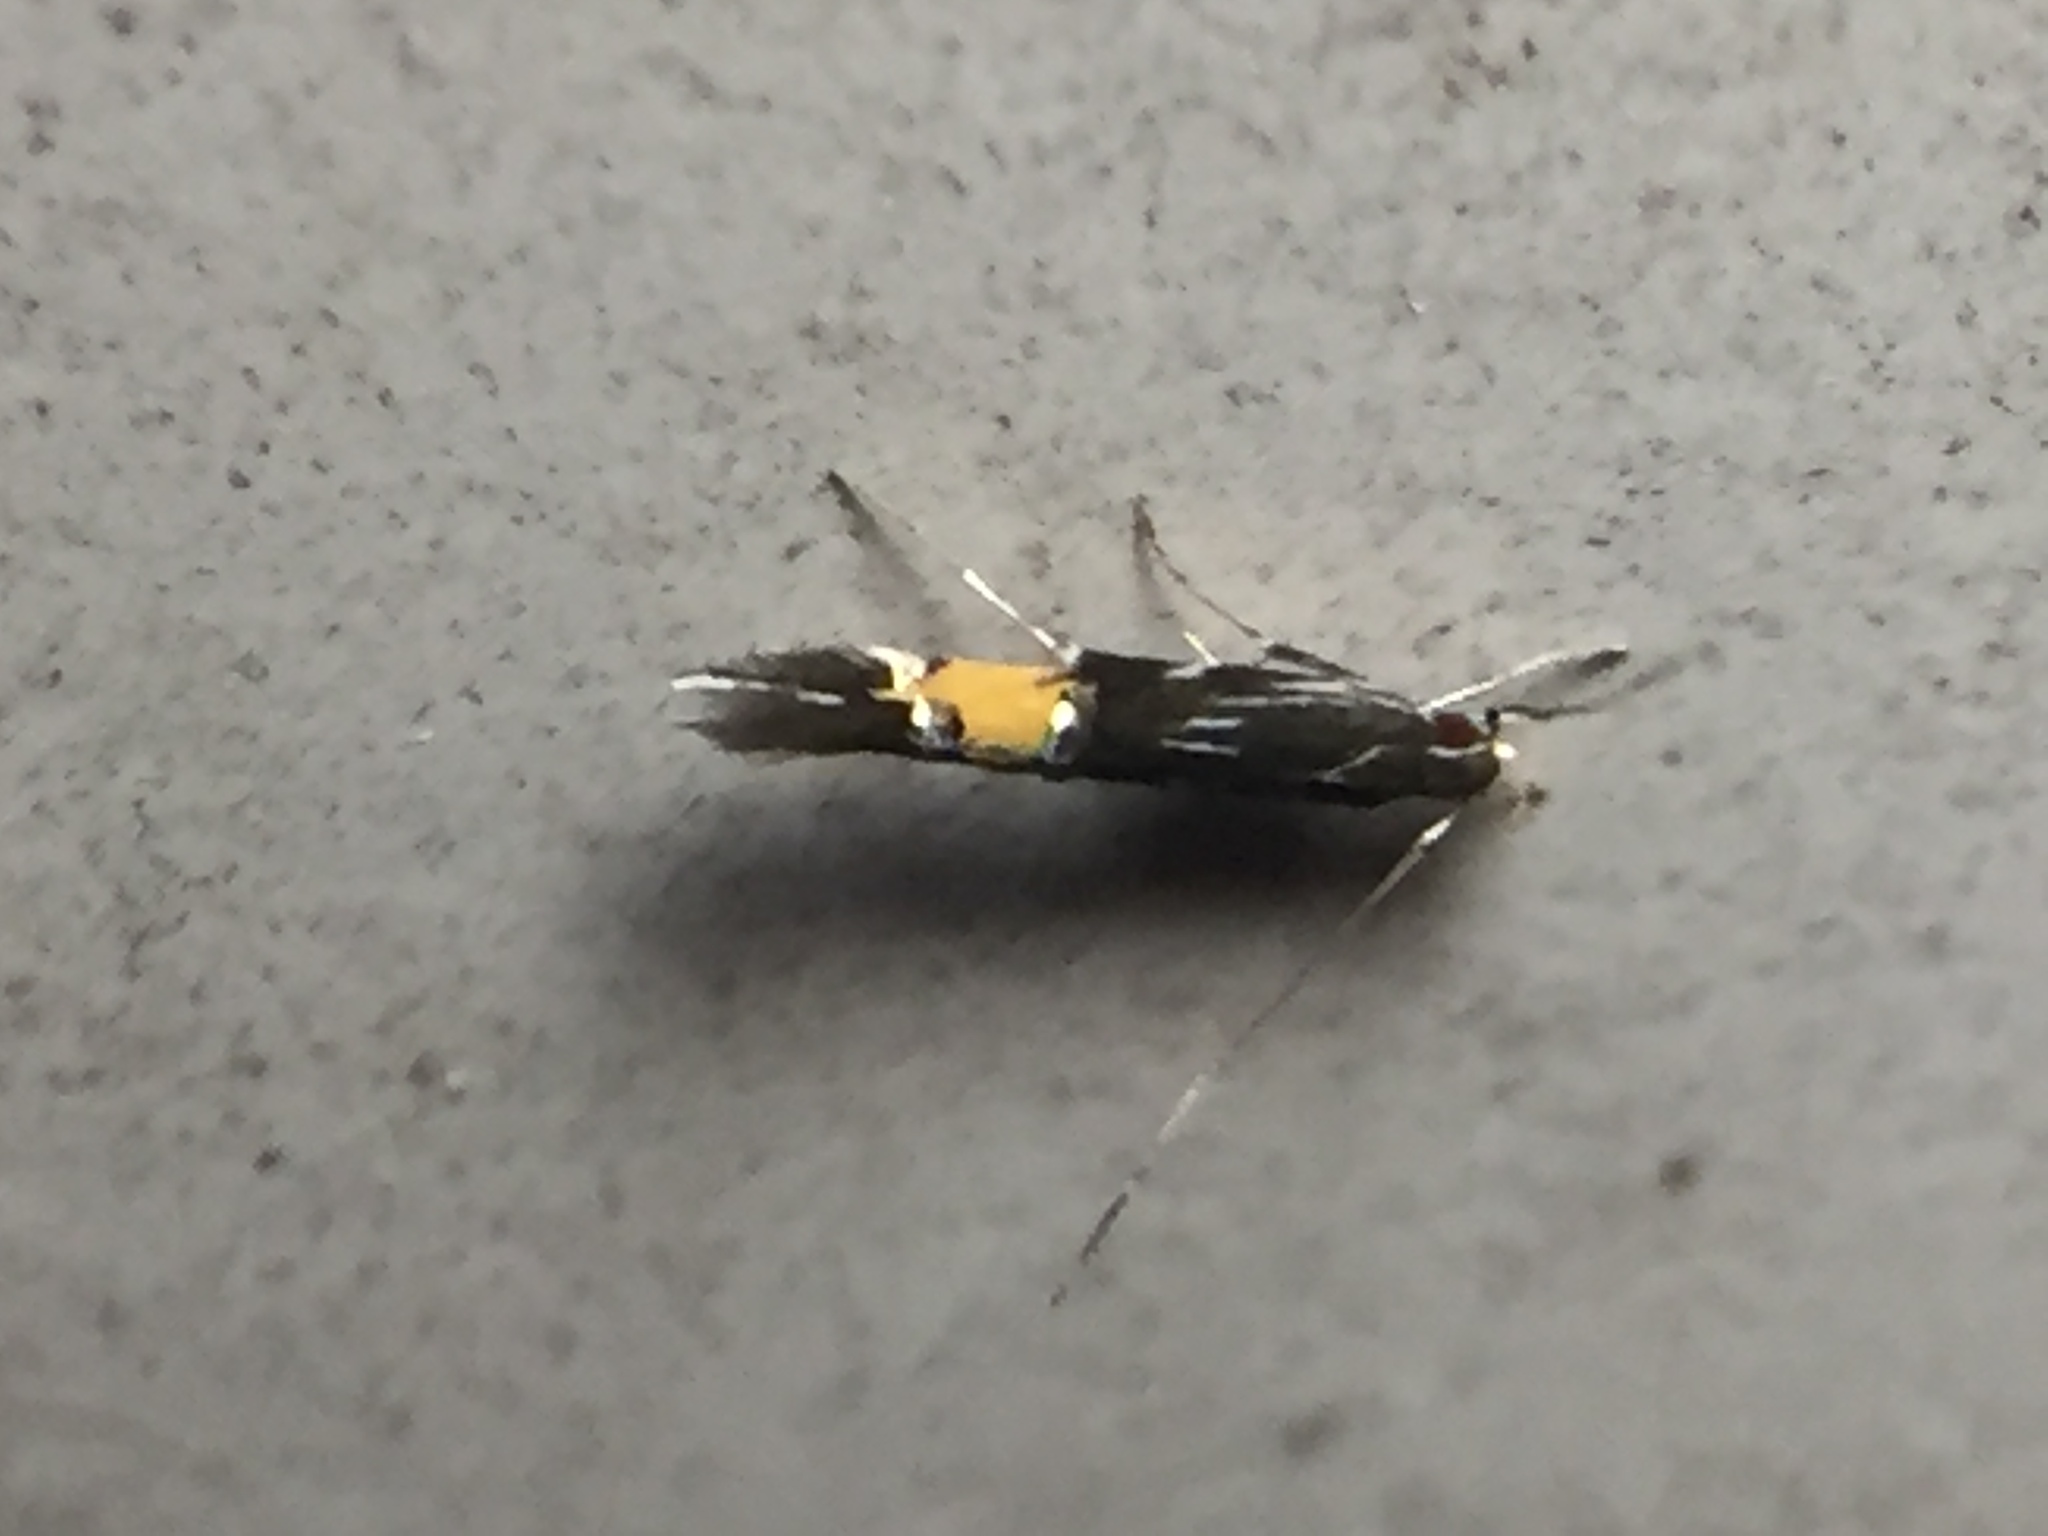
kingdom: Animalia
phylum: Arthropoda
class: Insecta
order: Lepidoptera
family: Cosmopterigidae
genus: Cosmopterix
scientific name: Cosmopterix attenuatella
